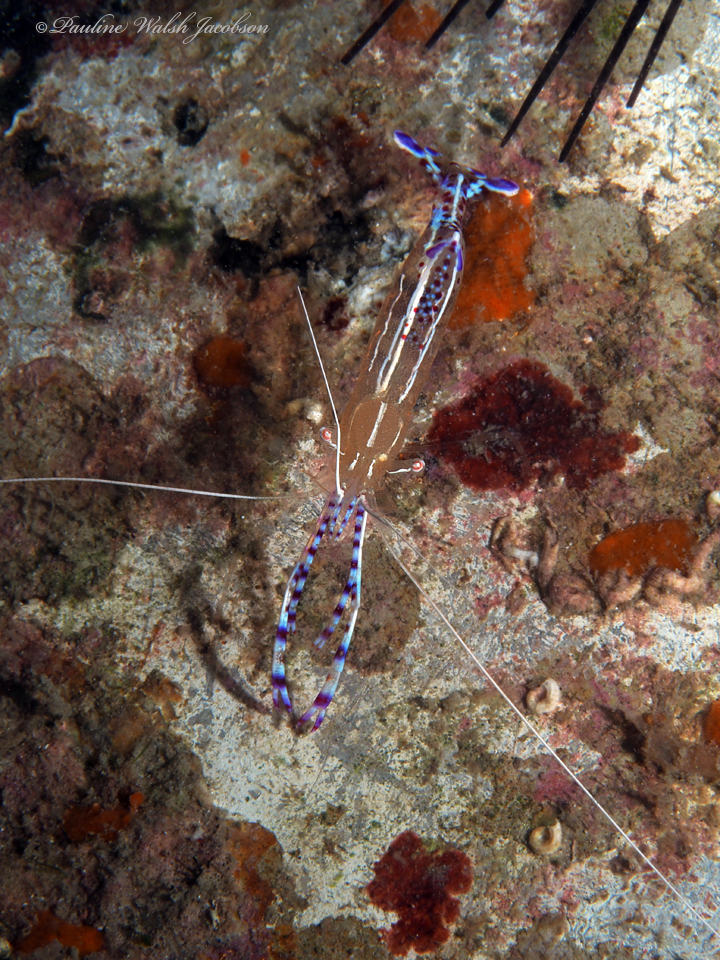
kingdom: Animalia
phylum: Arthropoda
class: Malacostraca
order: Decapoda
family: Palaemonidae
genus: Ancylomenes
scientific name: Ancylomenes pedersoni
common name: Pederson's cleaning shrimp
